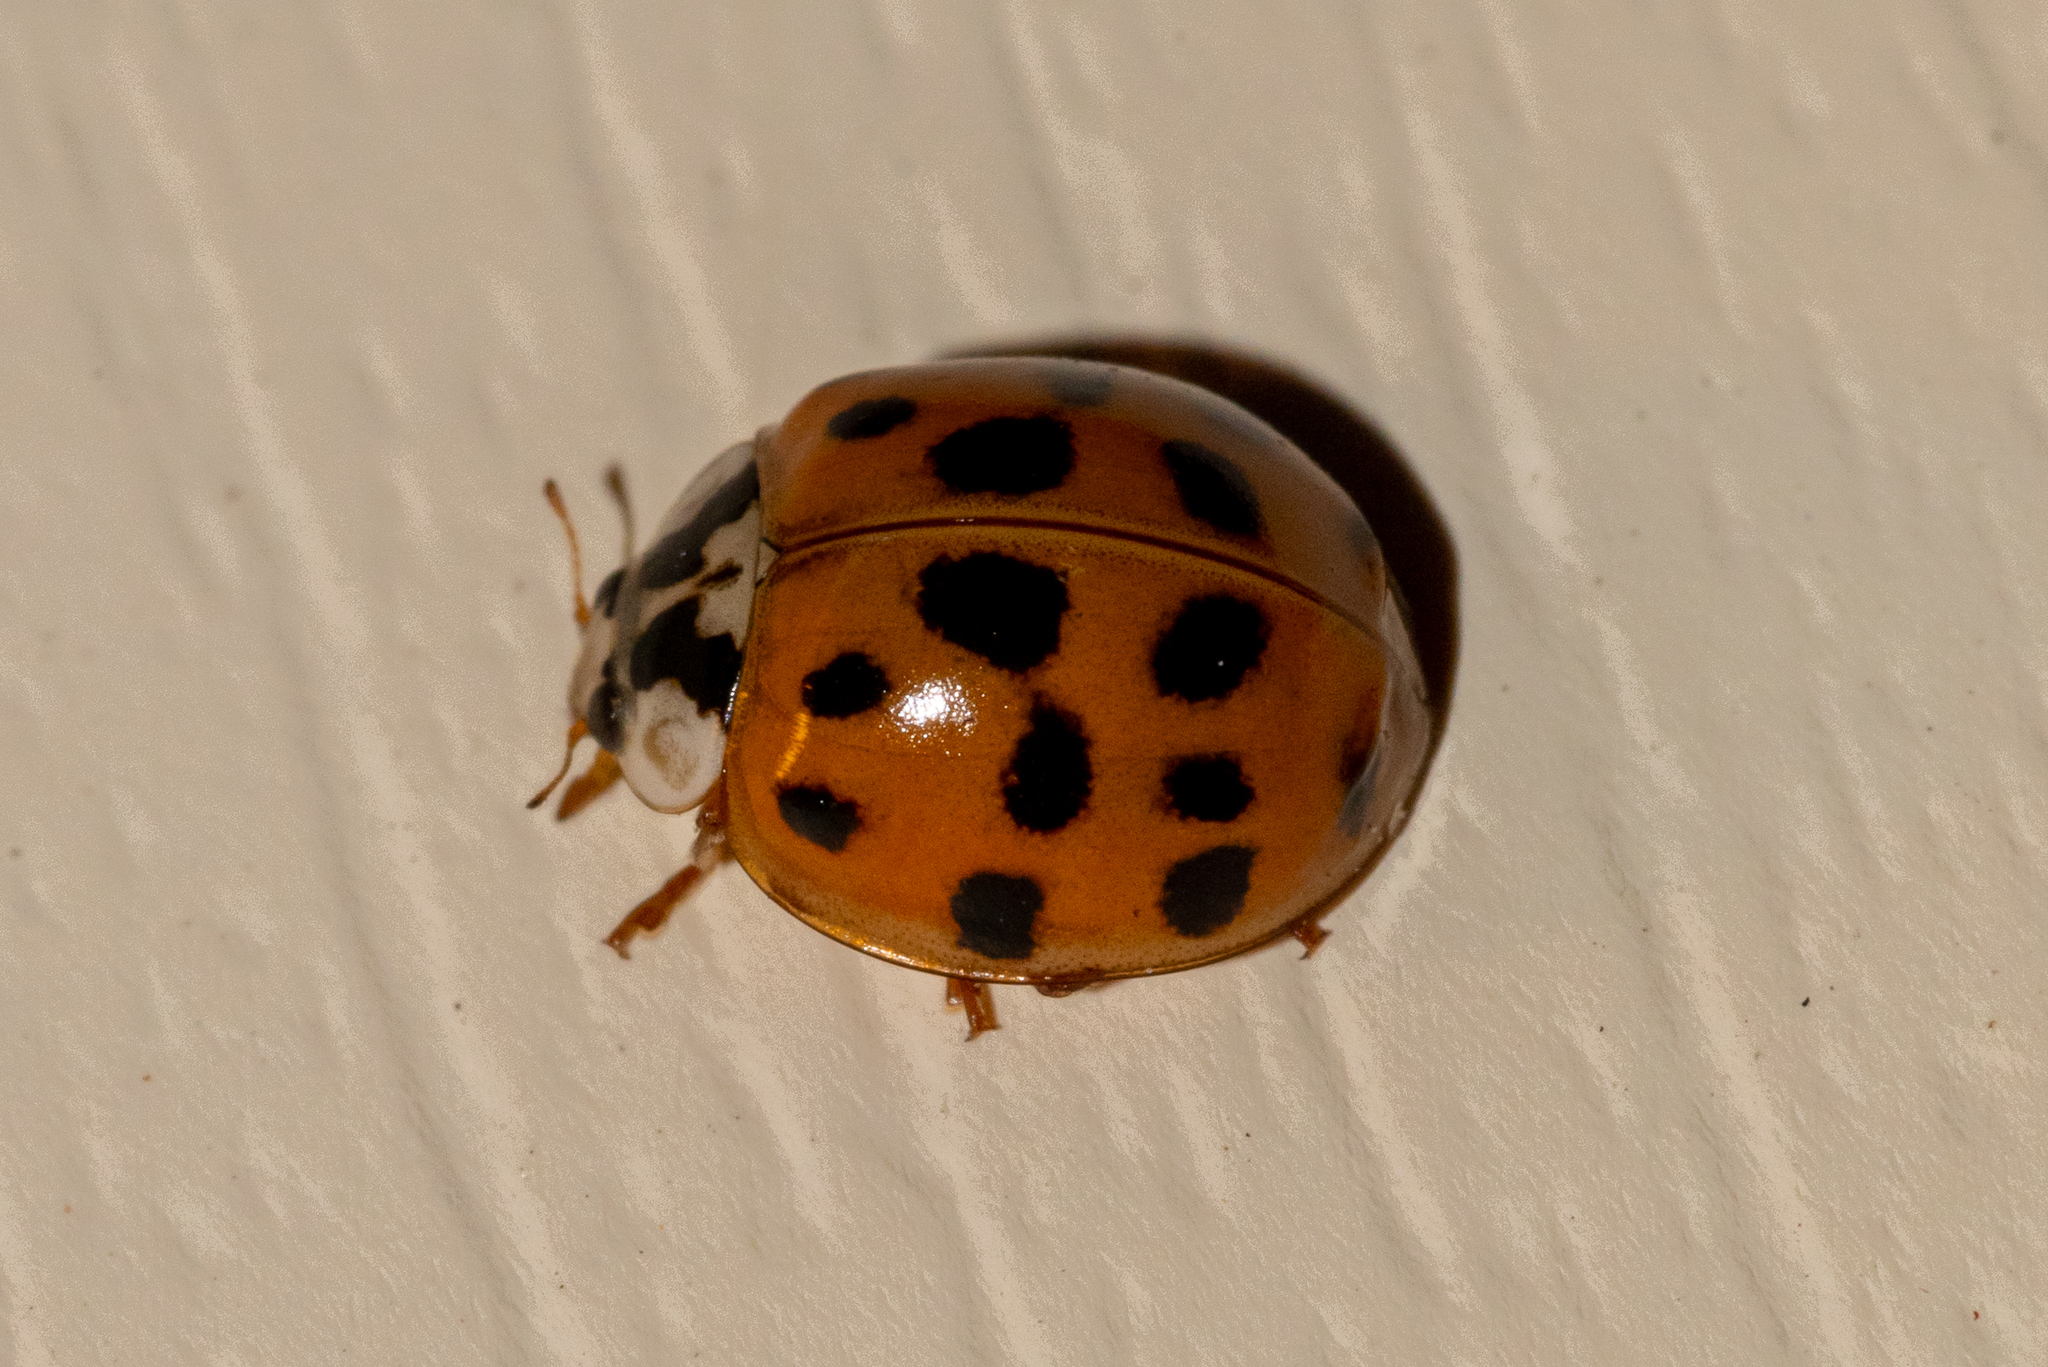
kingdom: Animalia
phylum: Arthropoda
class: Insecta
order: Coleoptera
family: Coccinellidae
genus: Harmonia
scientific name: Harmonia axyridis
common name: Harlequin ladybird
